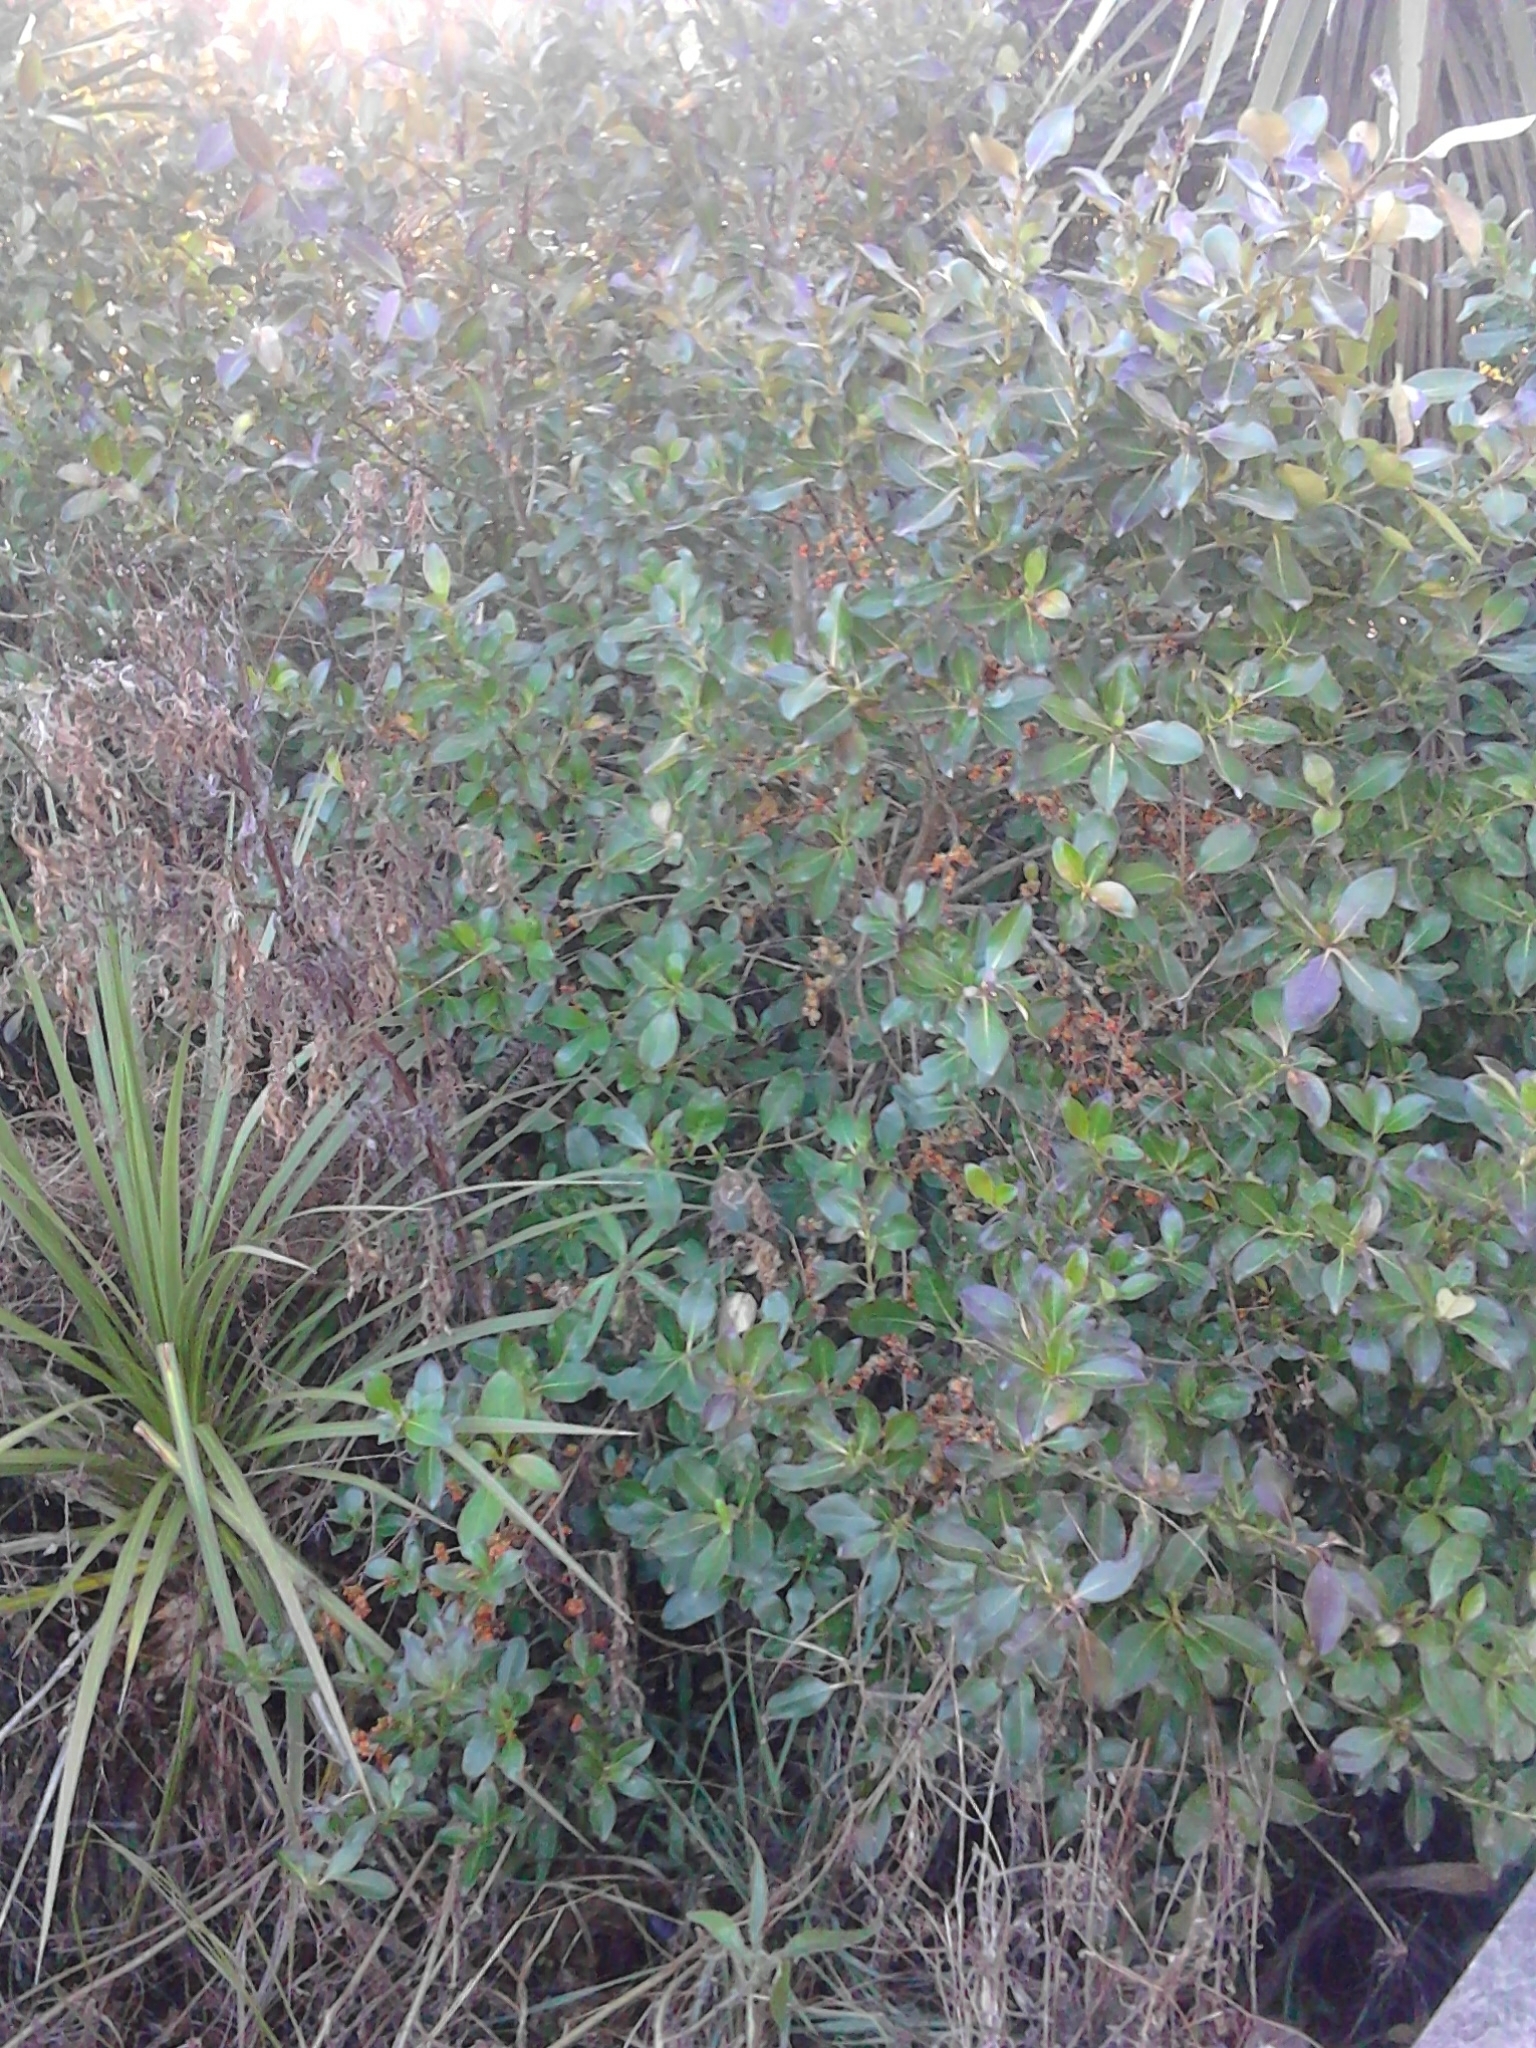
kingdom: Plantae
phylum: Tracheophyta
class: Magnoliopsida
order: Gentianales
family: Rubiaceae
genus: Coprosma
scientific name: Coprosma robusta
